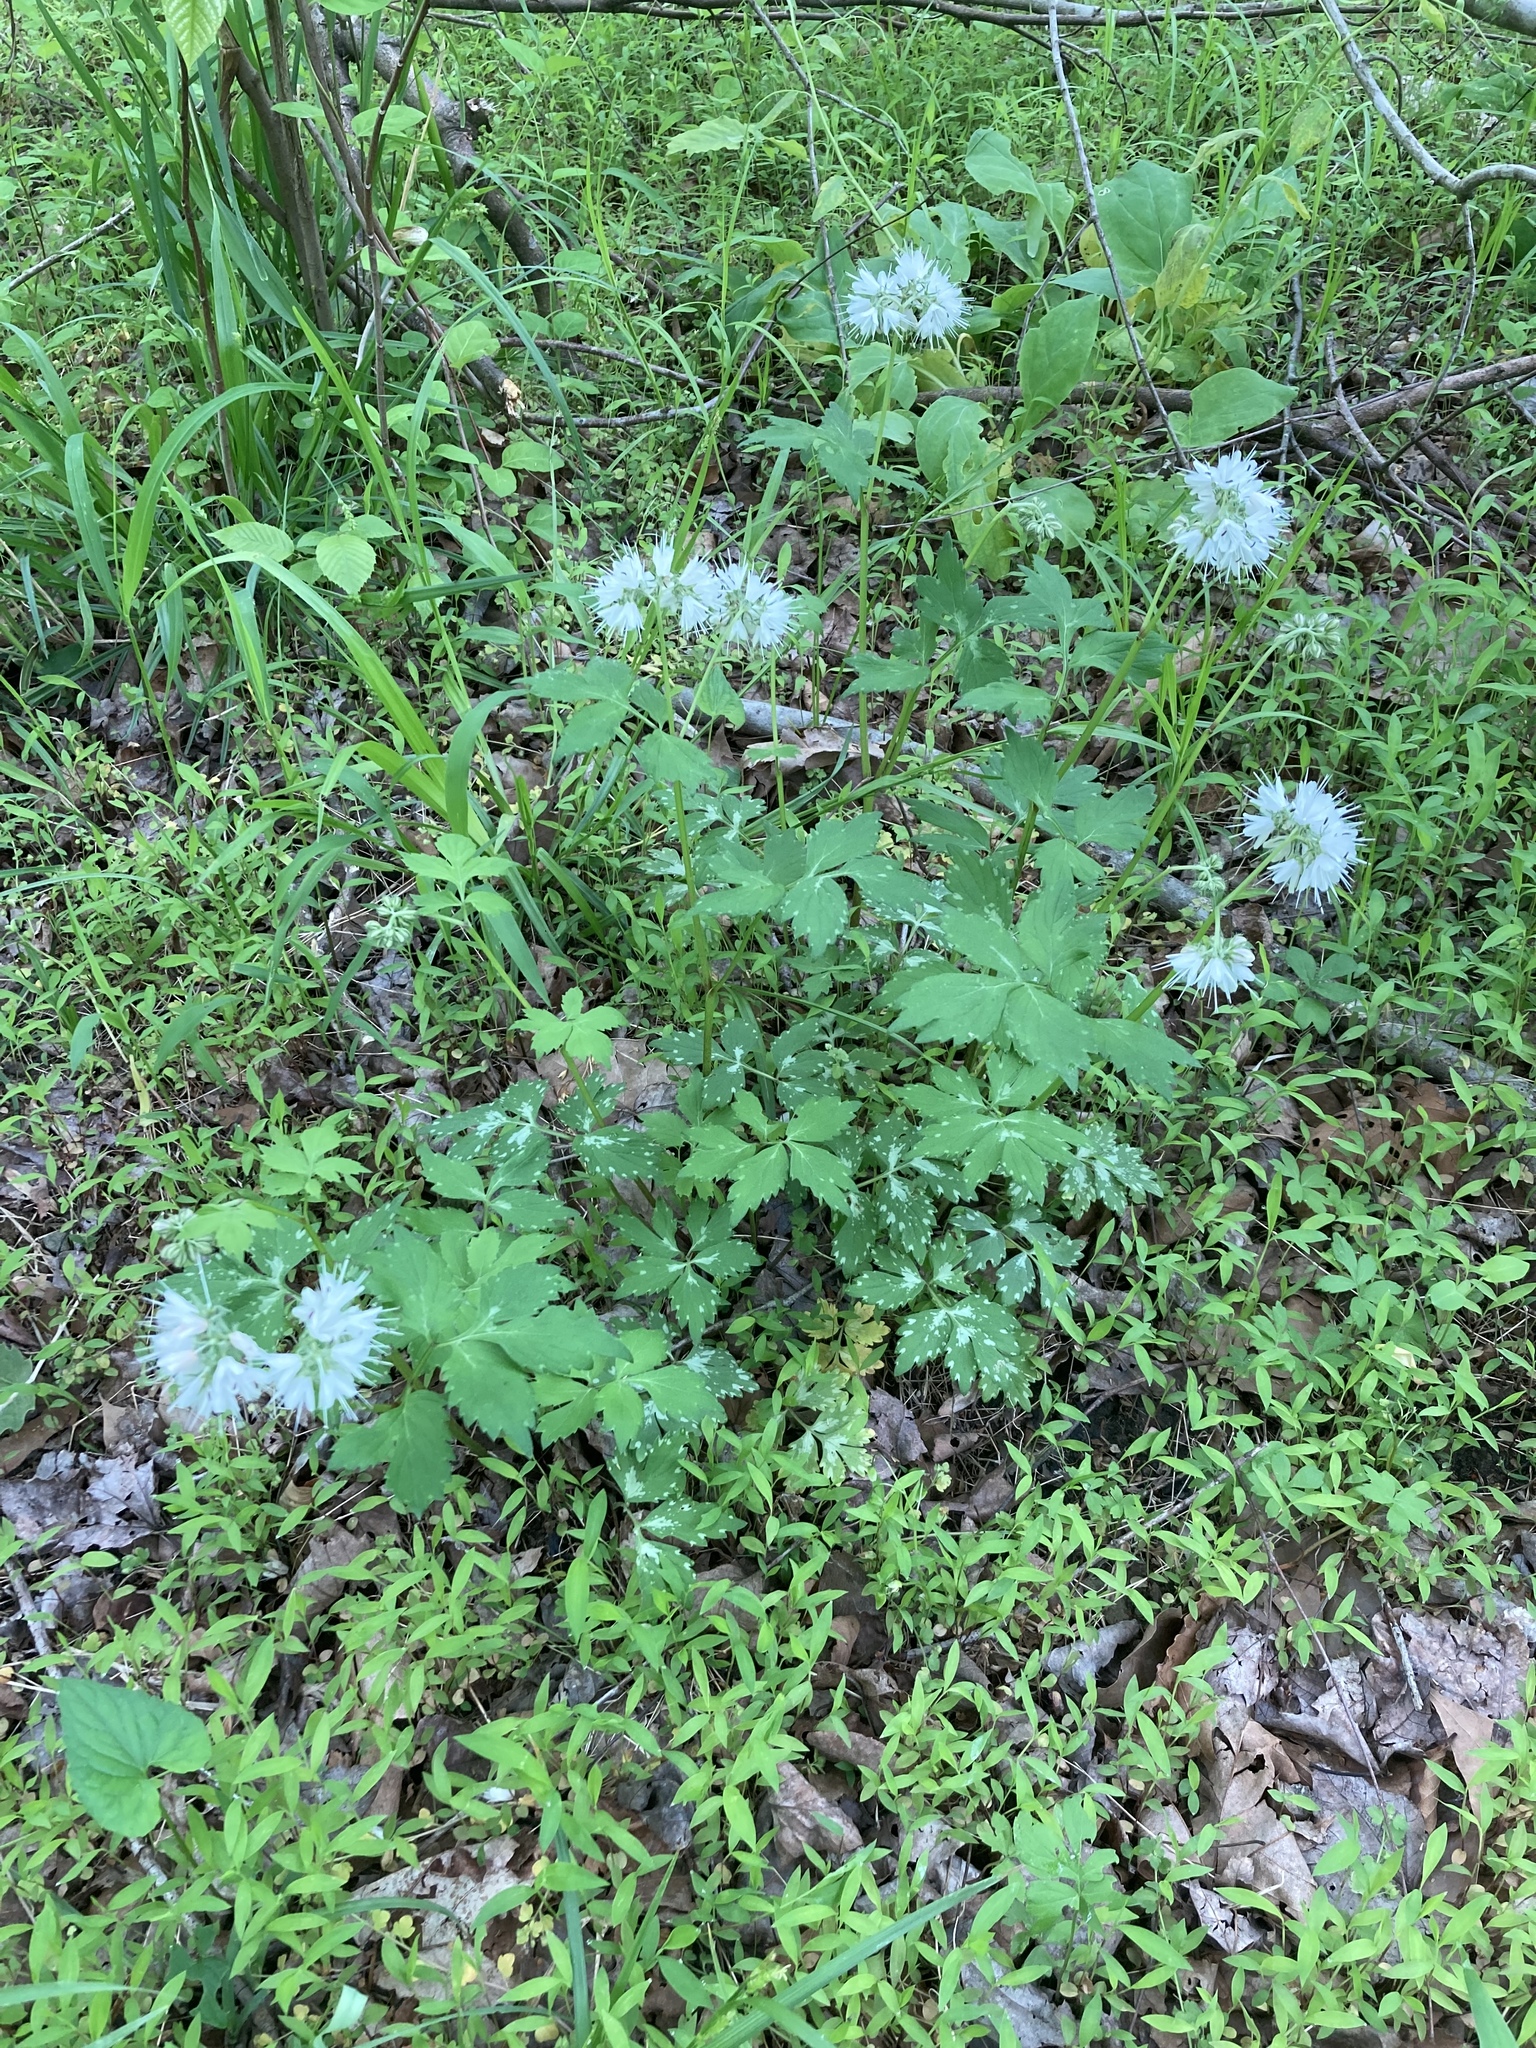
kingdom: Plantae
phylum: Tracheophyta
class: Magnoliopsida
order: Boraginales
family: Hydrophyllaceae
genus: Hydrophyllum
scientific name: Hydrophyllum virginianum
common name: Virginia waterleaf
